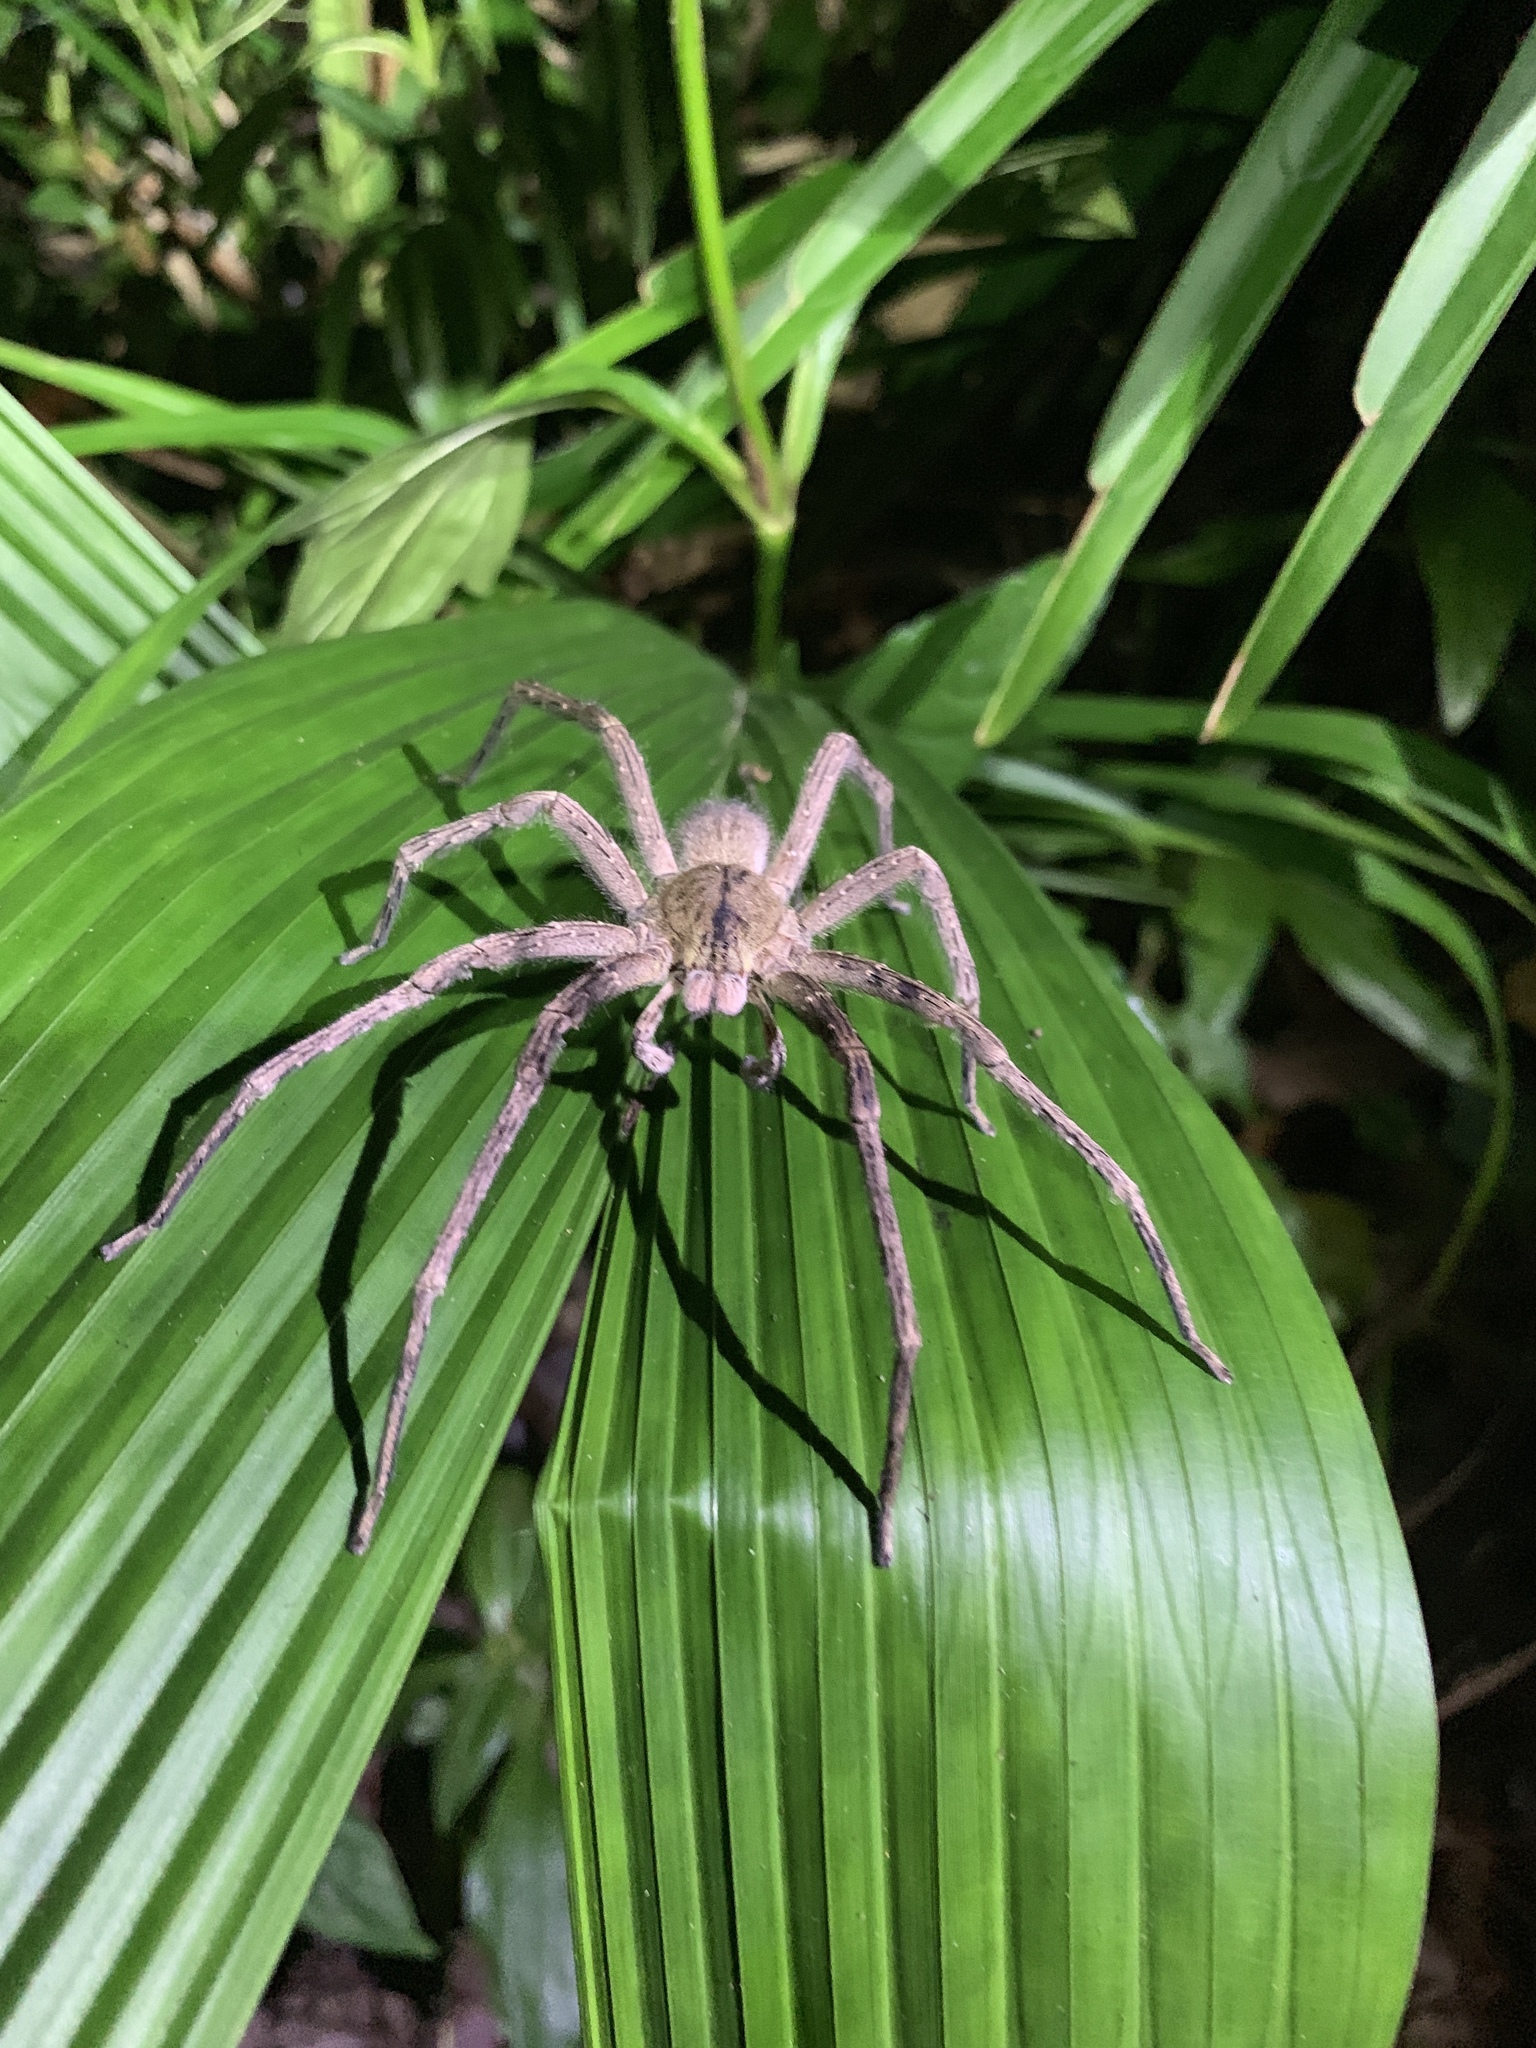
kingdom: Animalia
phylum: Arthropoda
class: Arachnida
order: Araneae
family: Ctenidae
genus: Phoneutria
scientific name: Phoneutria depilata
